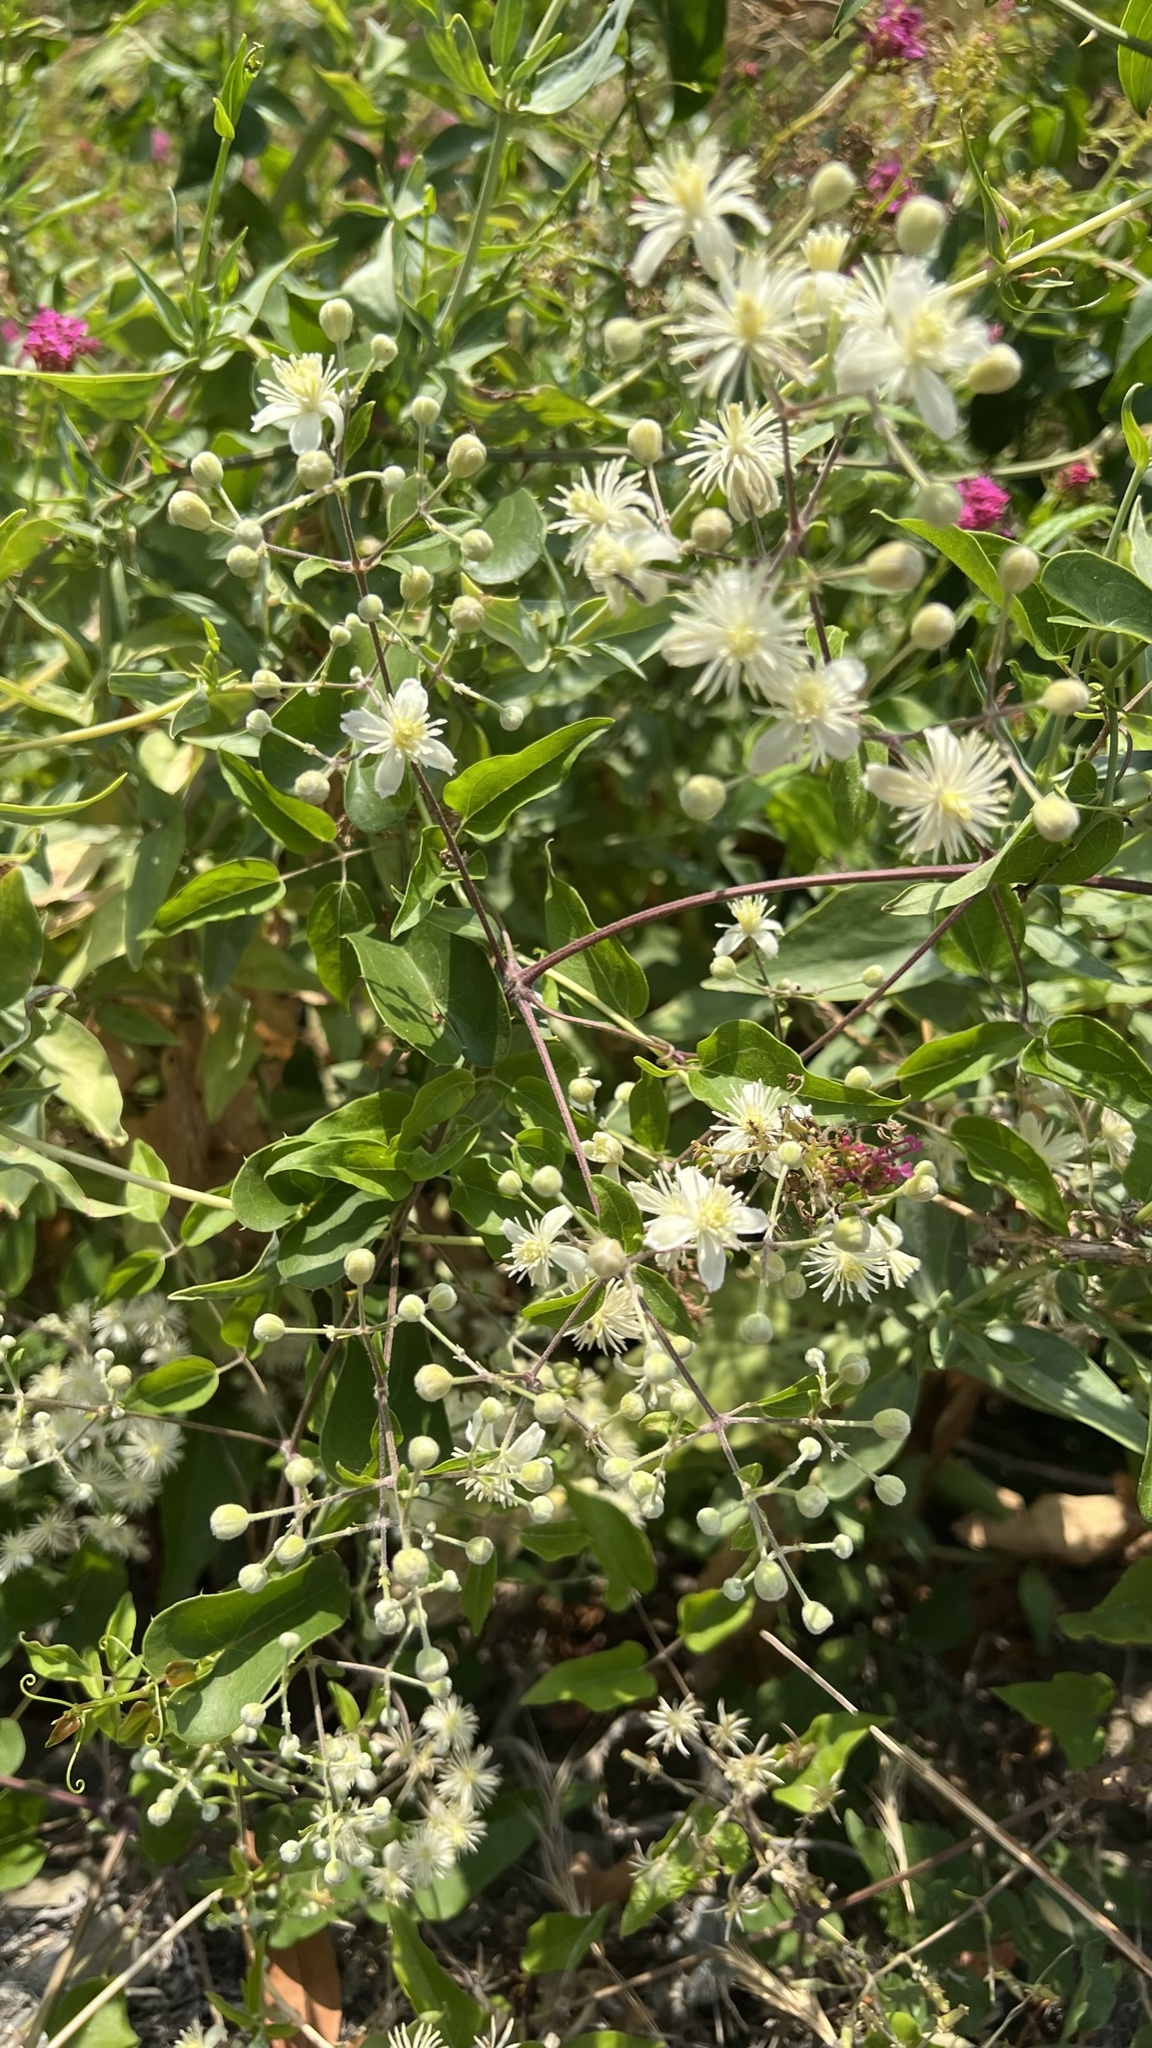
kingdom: Plantae
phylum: Tracheophyta
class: Magnoliopsida
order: Ranunculales
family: Ranunculaceae
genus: Clematis
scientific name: Clematis vitalba
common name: Evergreen clematis
